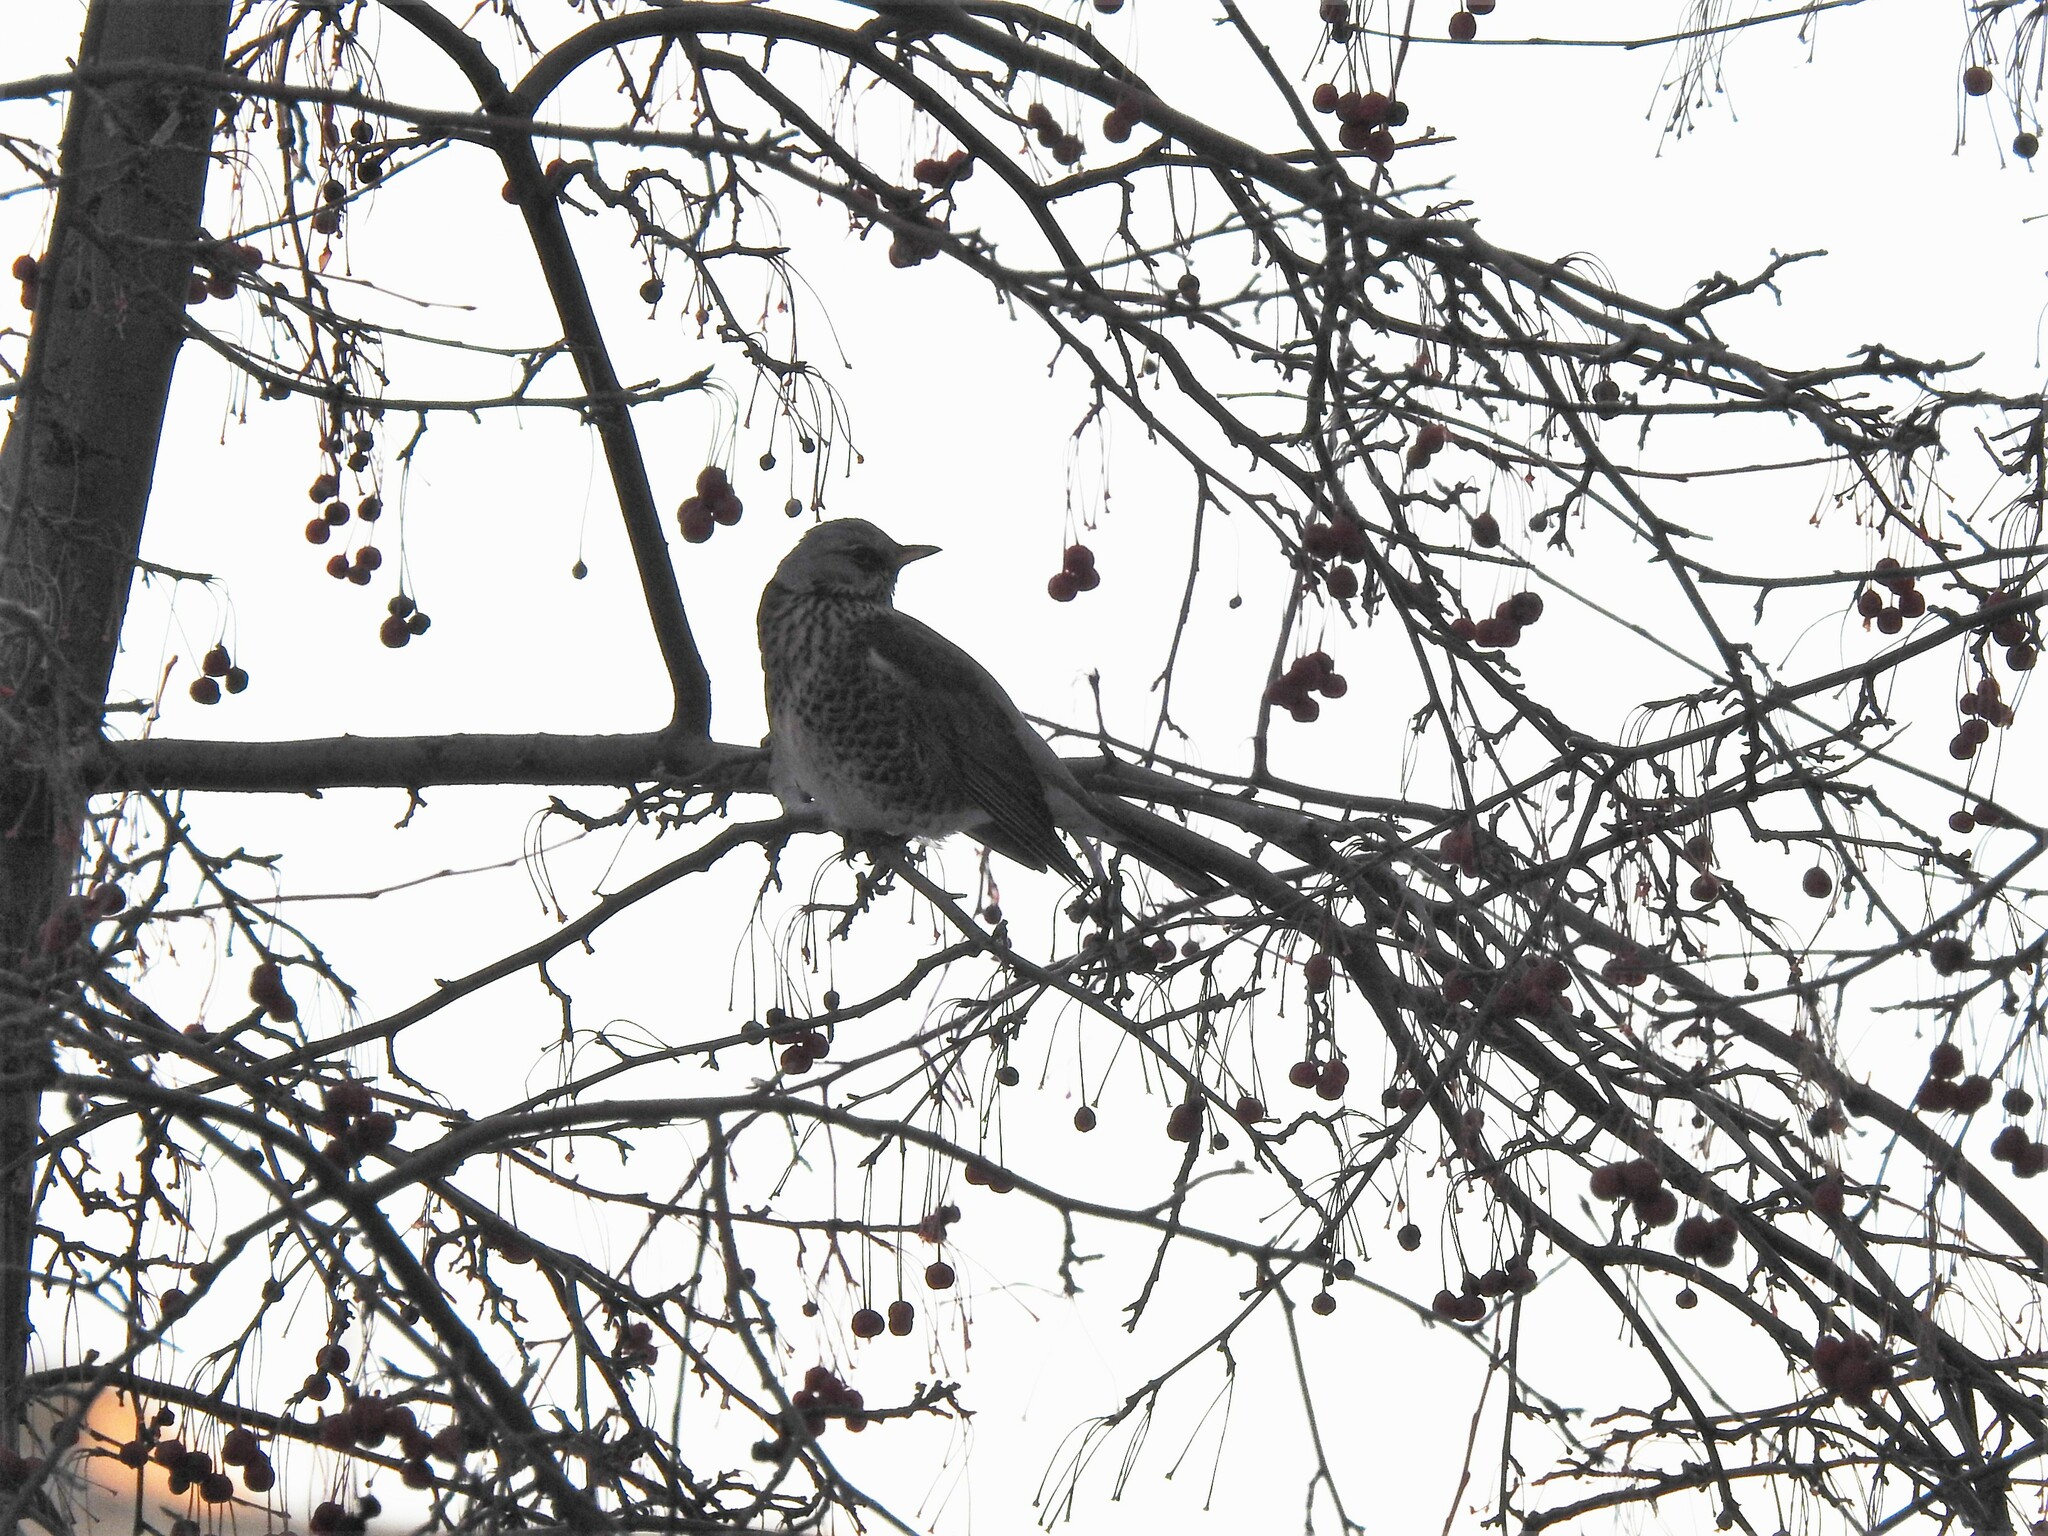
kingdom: Animalia
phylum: Chordata
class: Aves
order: Passeriformes
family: Turdidae
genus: Turdus
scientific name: Turdus pilaris
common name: Fieldfare
